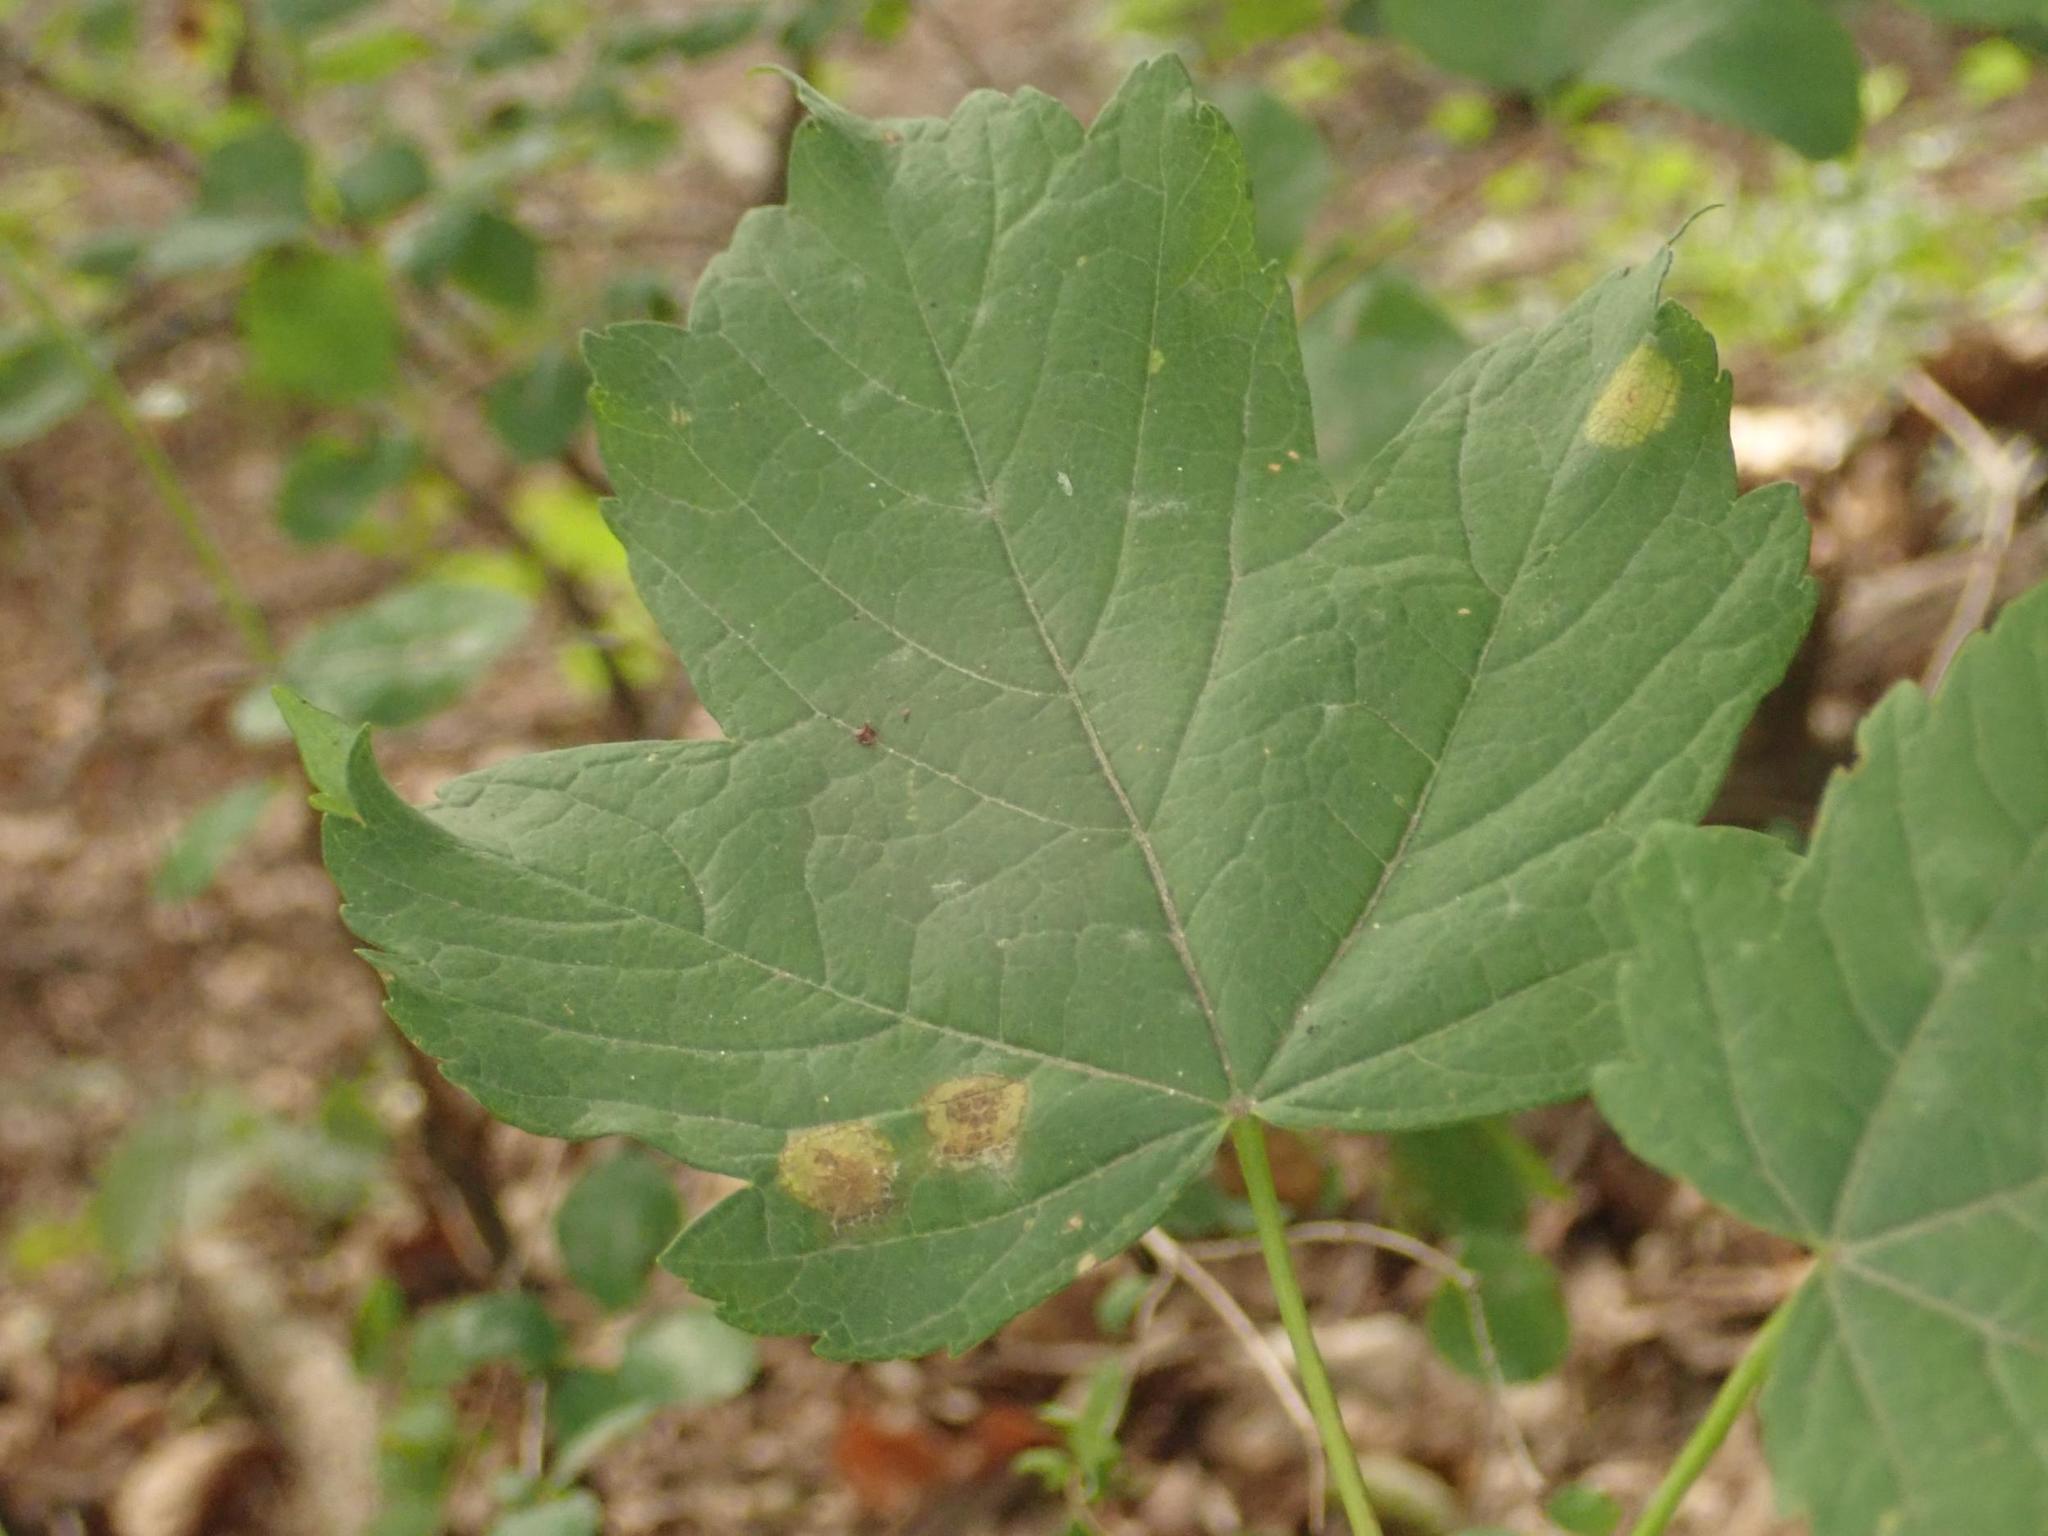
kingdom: Plantae
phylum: Tracheophyta
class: Magnoliopsida
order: Sapindales
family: Sapindaceae
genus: Acer
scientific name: Acer pseudoplatanus
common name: Sycamore
